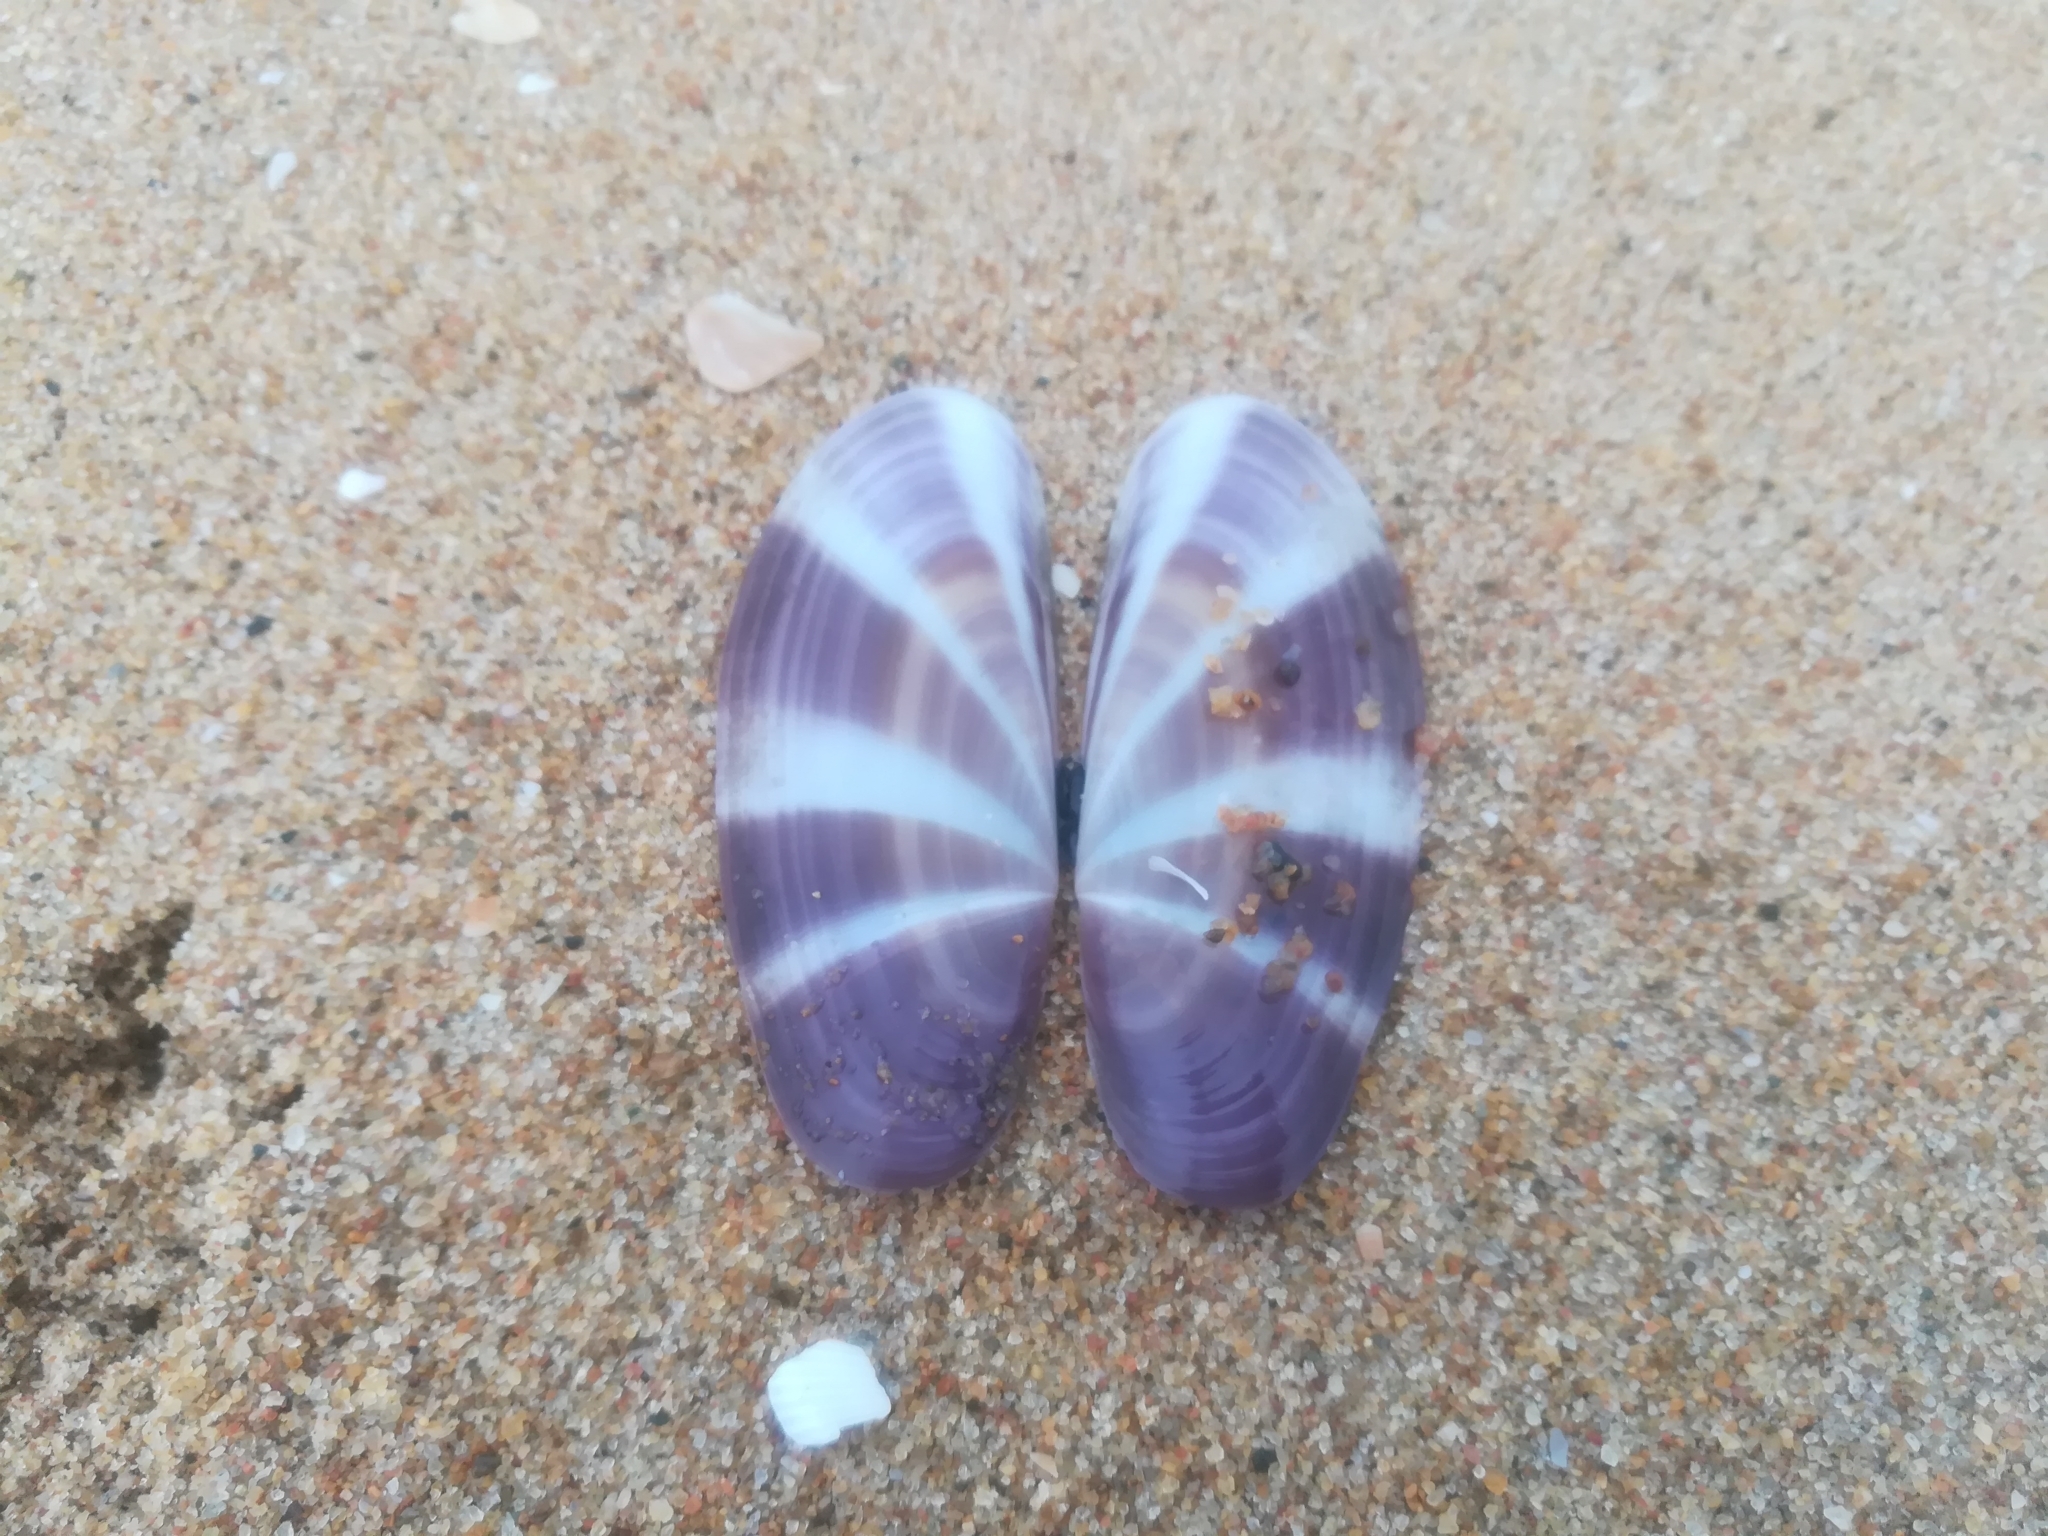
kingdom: Animalia
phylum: Mollusca
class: Bivalvia
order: Adapedonta
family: Pharidae
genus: Siliqua
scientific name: Siliqua radiata
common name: Sunset razor clam
